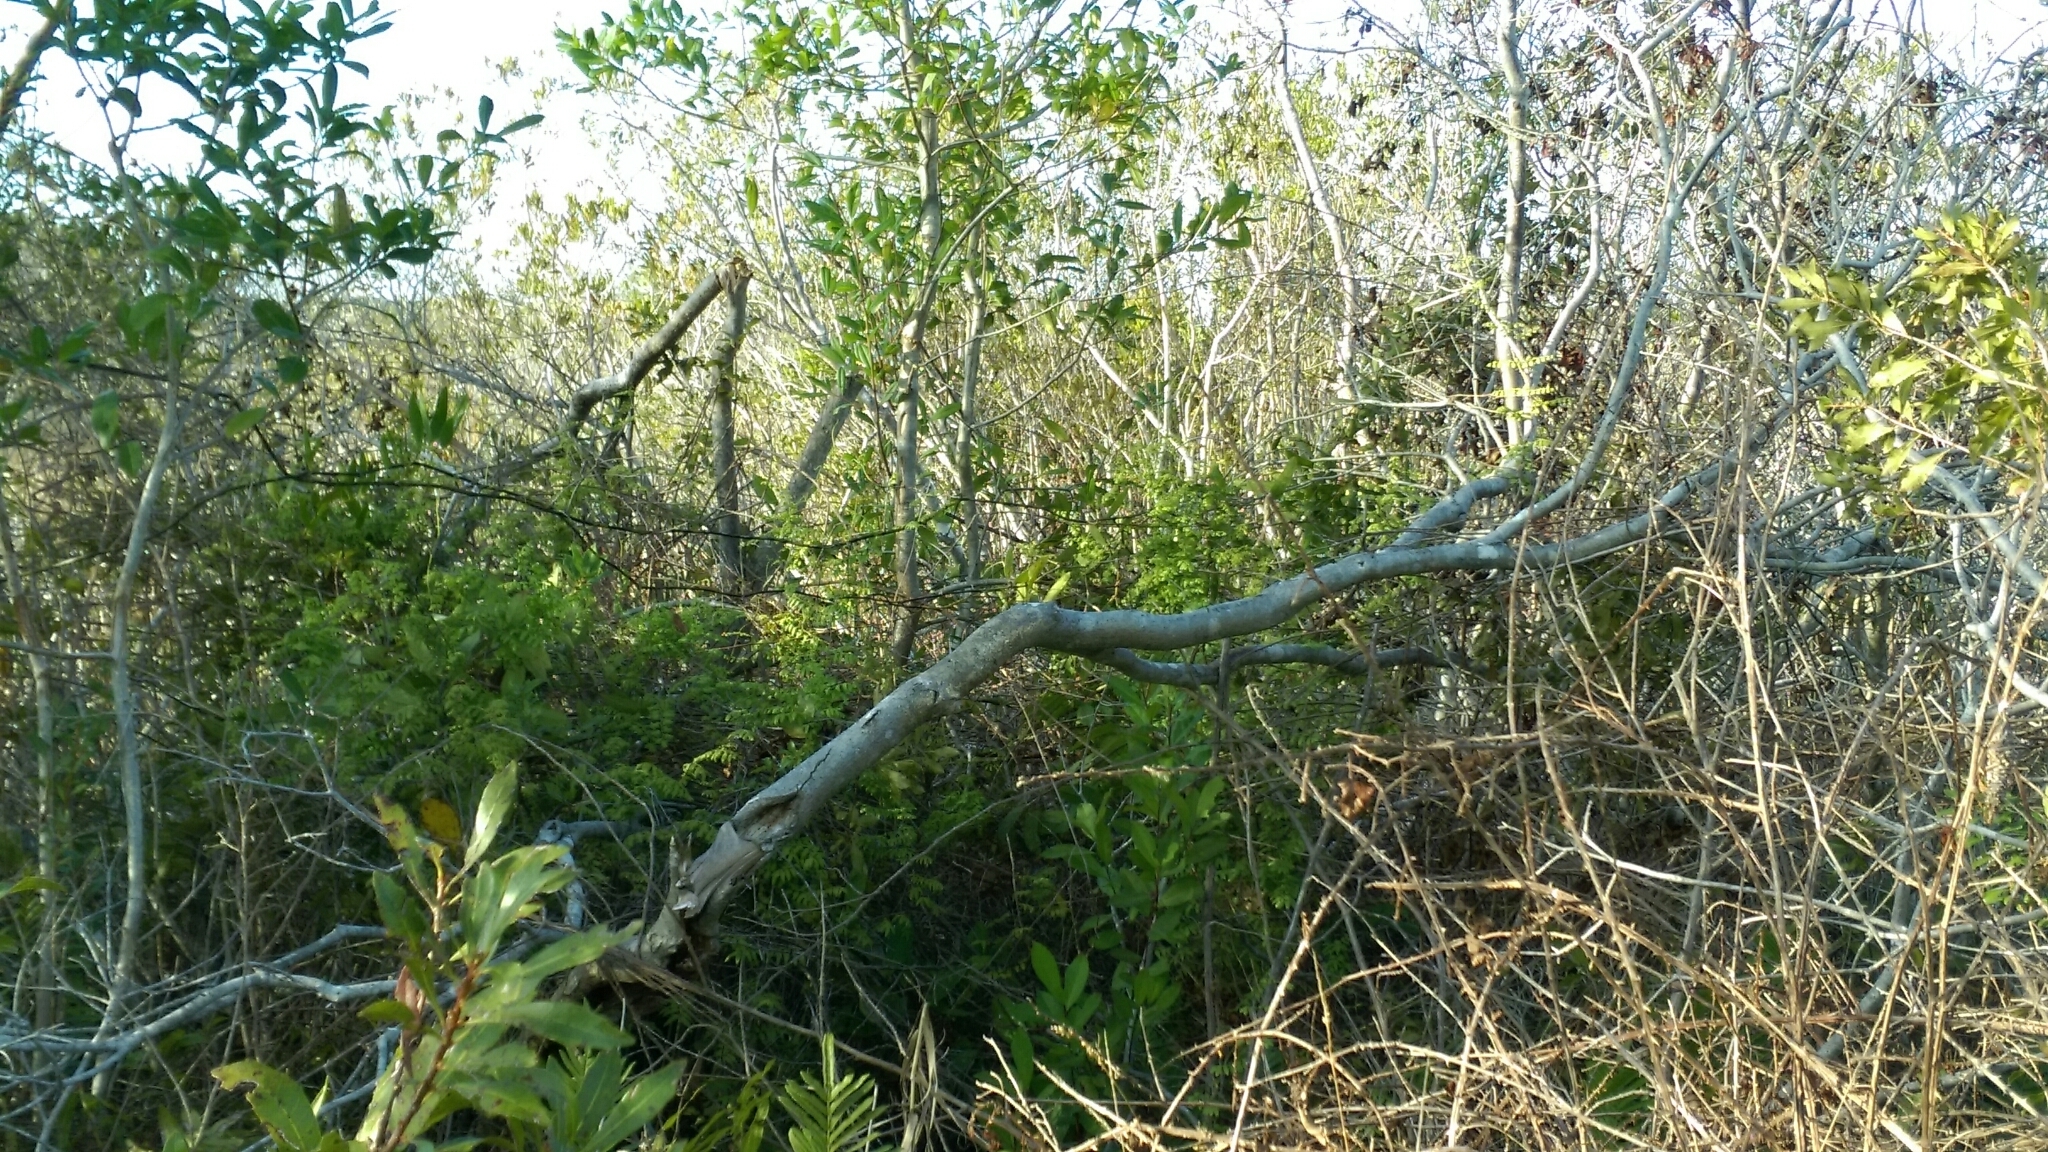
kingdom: Plantae
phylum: Tracheophyta
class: Polypodiopsida
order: Schizaeales
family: Lygodiaceae
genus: Lygodium
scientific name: Lygodium microphyllum
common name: Small-leaf climbing fern
